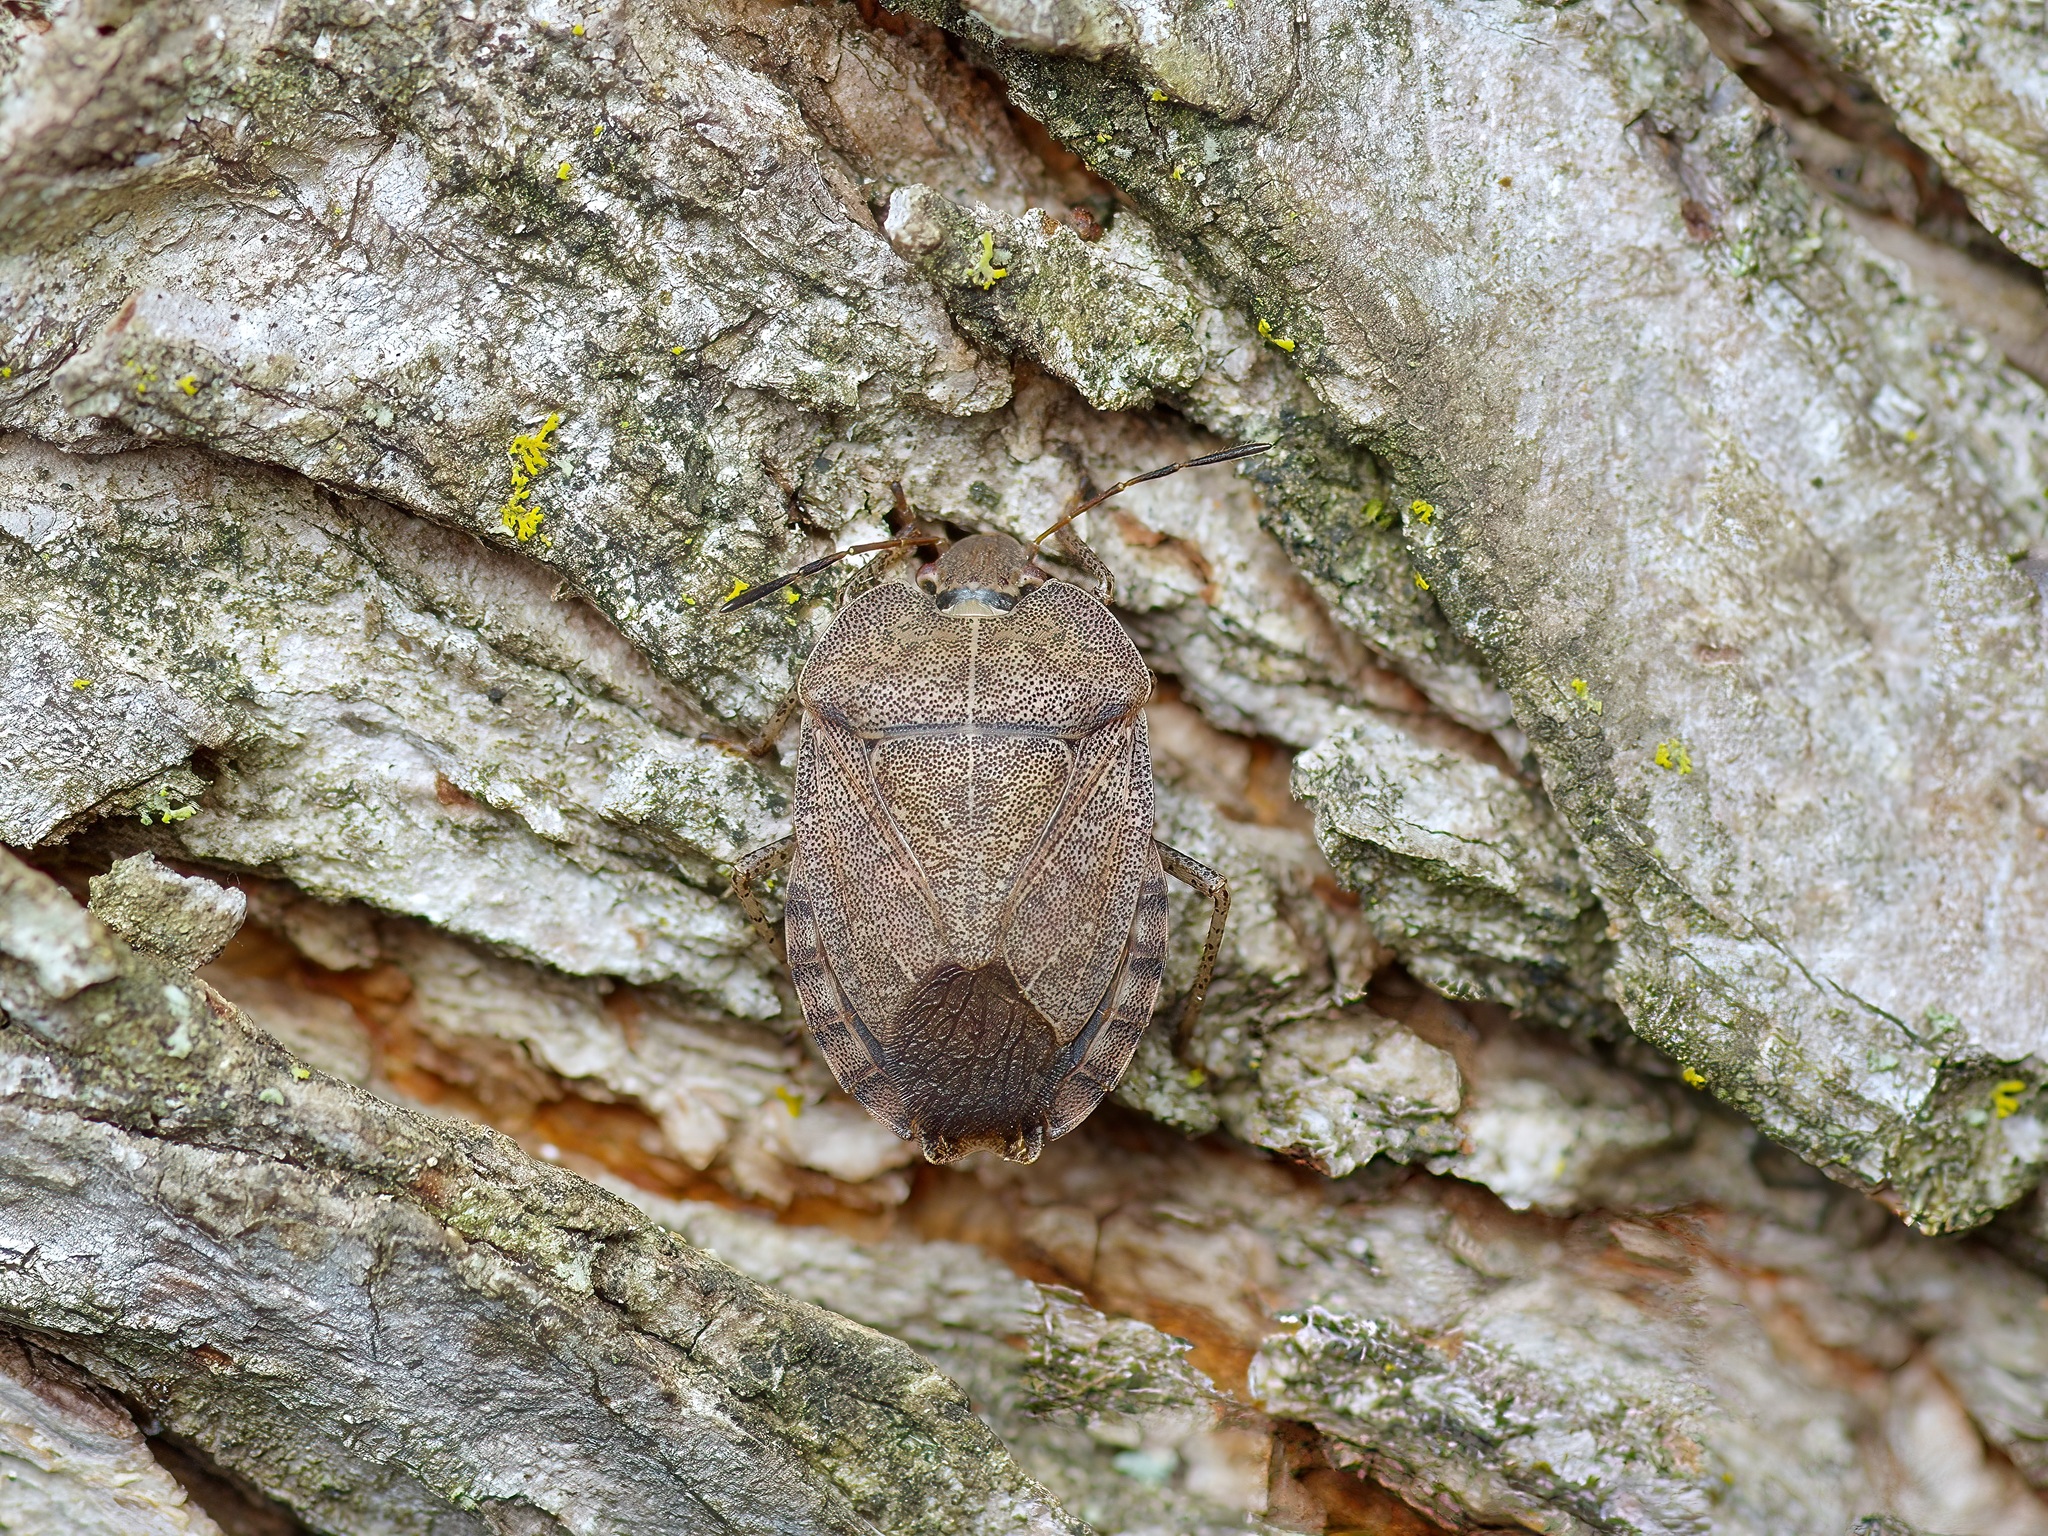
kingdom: Animalia
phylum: Arthropoda
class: Insecta
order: Hemiptera
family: Pentatomidae
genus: Menecles
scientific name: Menecles insertus
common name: Elf shoe stink bug
